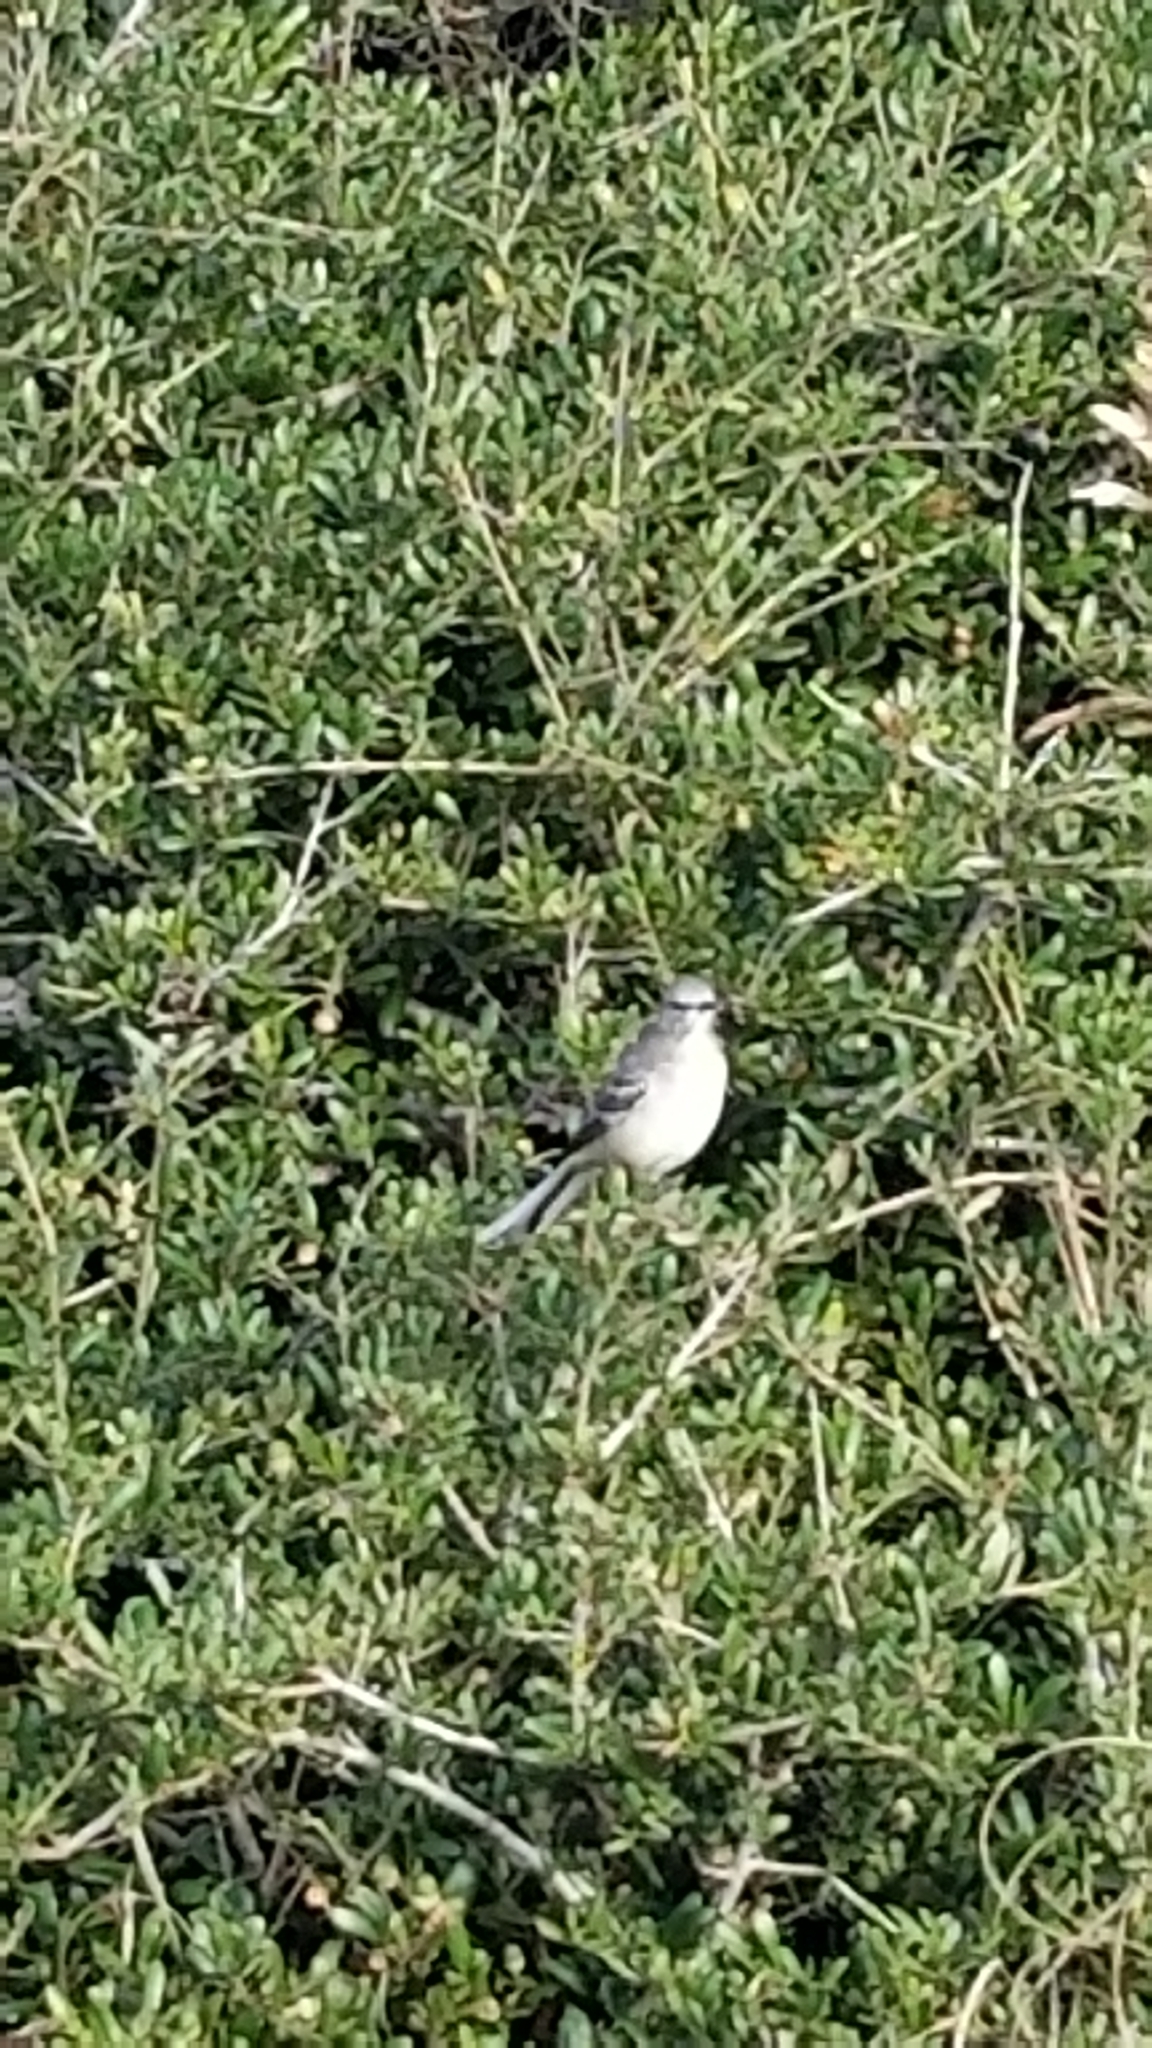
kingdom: Animalia
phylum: Chordata
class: Aves
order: Passeriformes
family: Mimidae
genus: Mimus
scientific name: Mimus polyglottos
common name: Northern mockingbird
